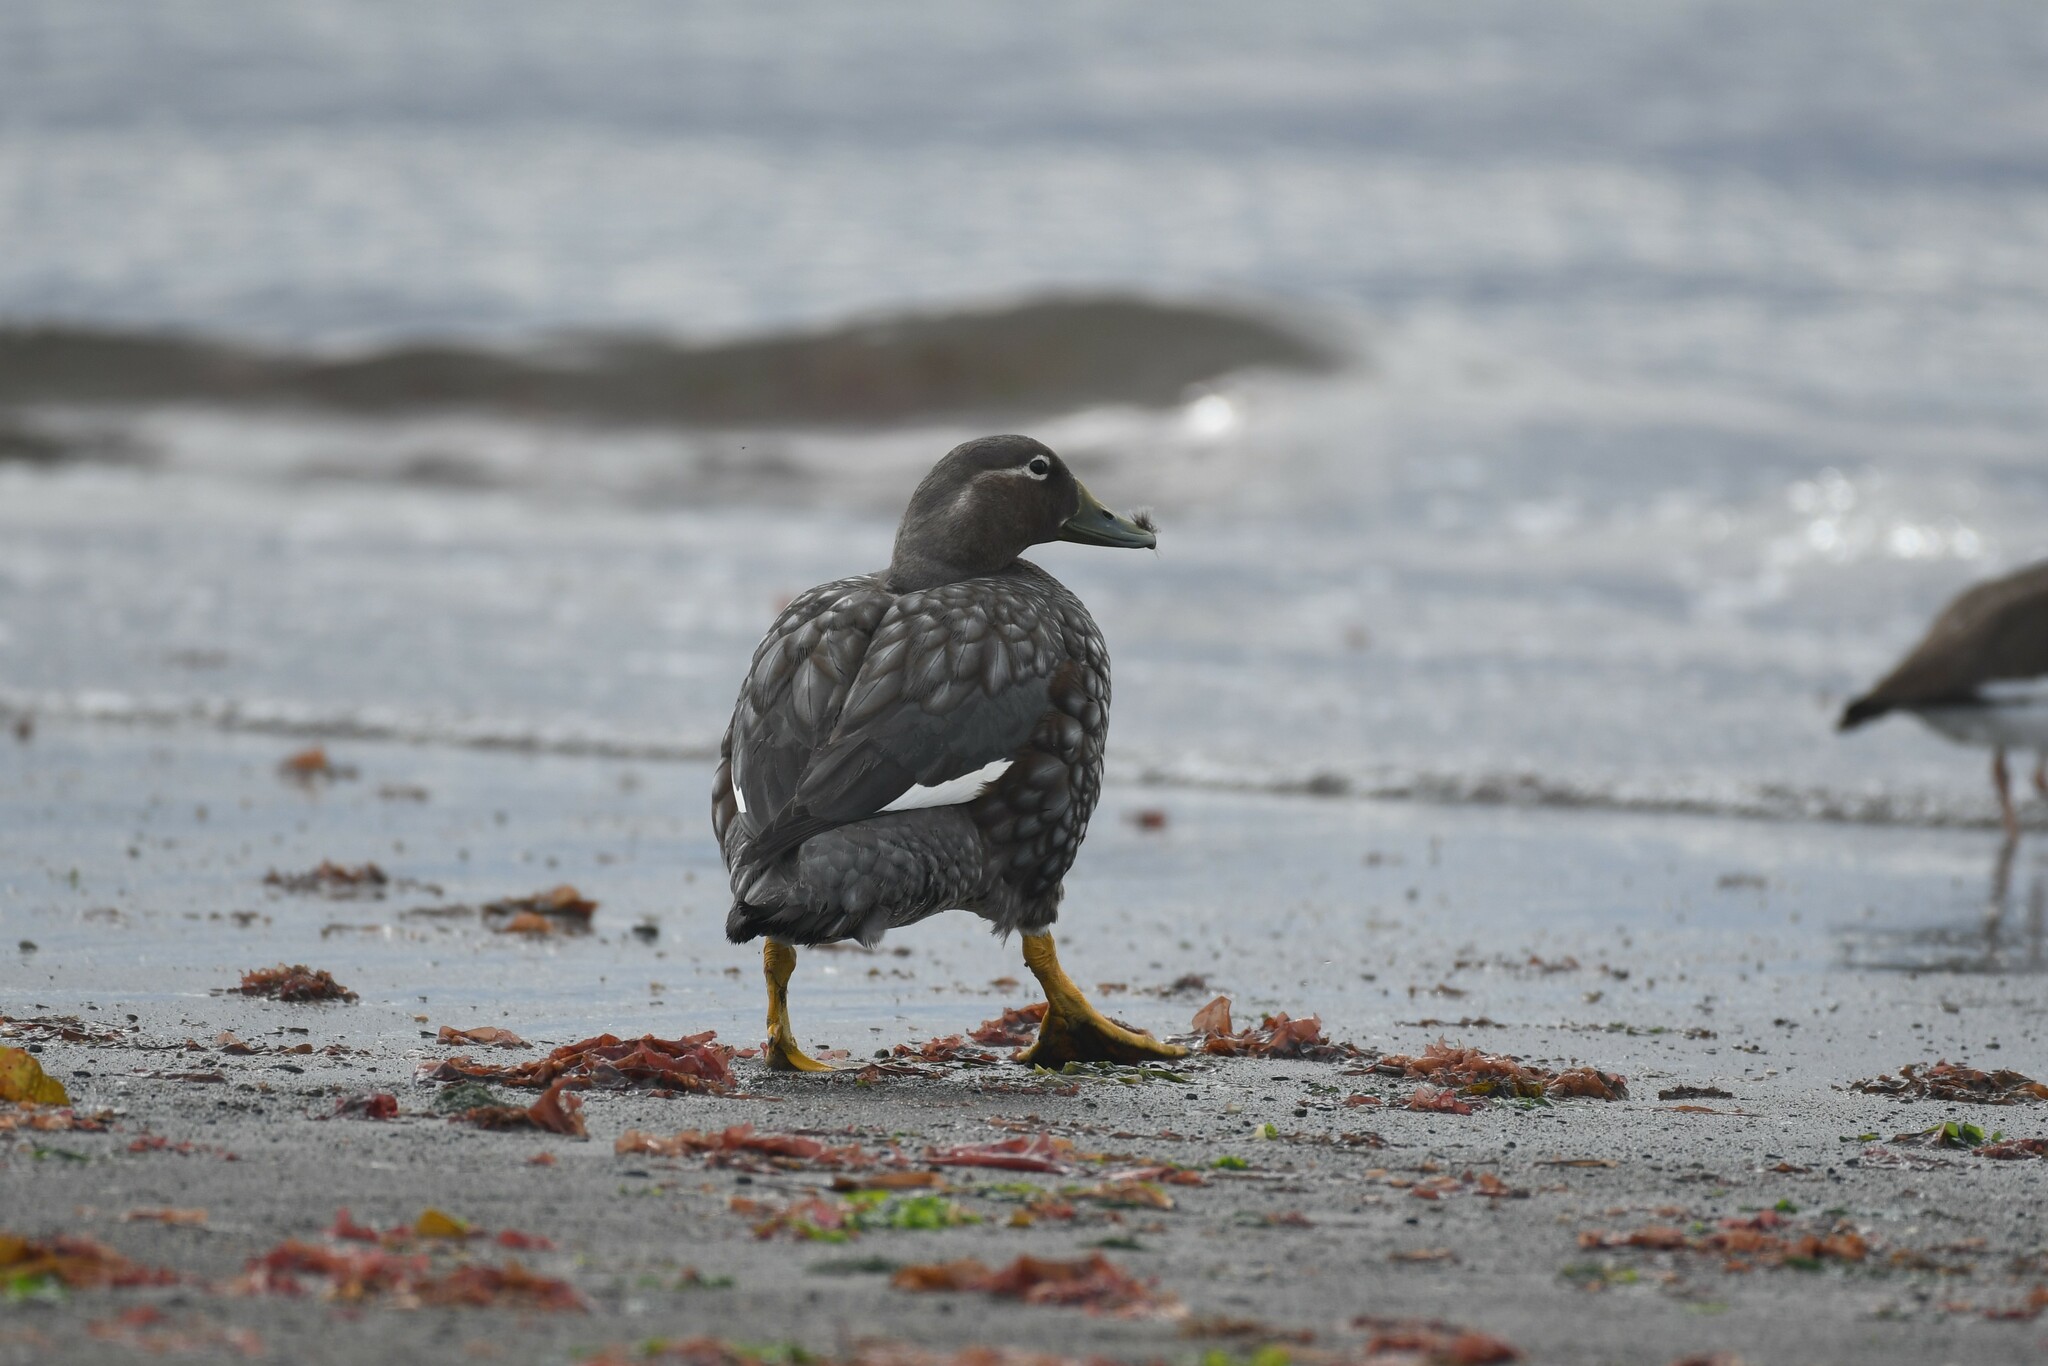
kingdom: Animalia
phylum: Chordata
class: Aves
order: Anseriformes
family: Anatidae
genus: Tachyeres
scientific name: Tachyeres patachonicus
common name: Flying steamer duck
